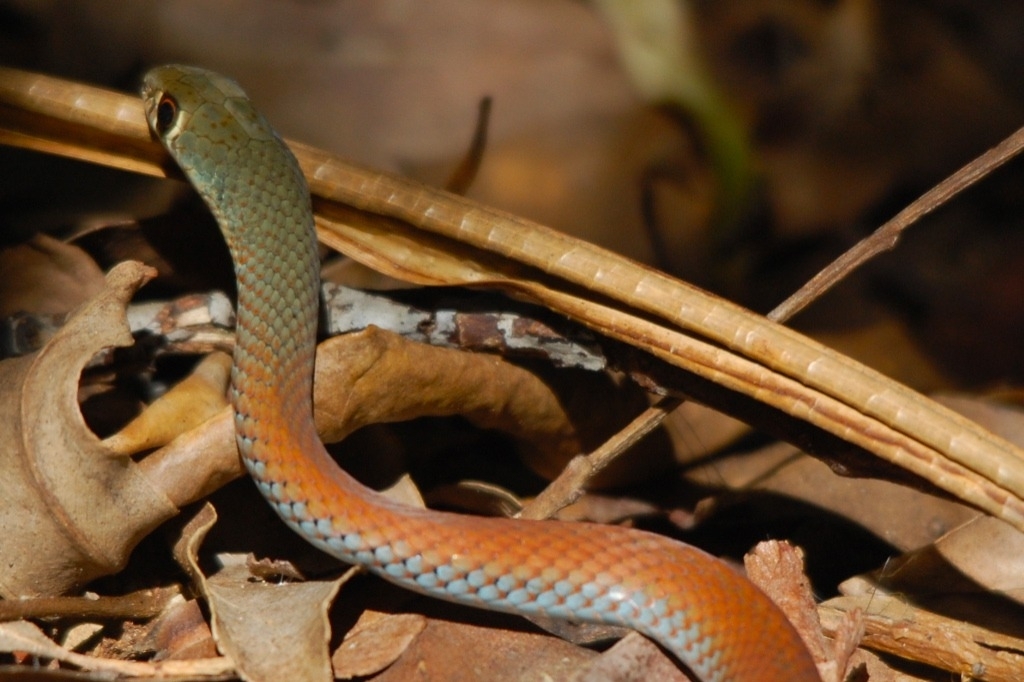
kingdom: Animalia
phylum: Chordata
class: Squamata
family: Elapidae
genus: Demansia
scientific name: Demansia psammophis
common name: Yellow-faced whip snake
